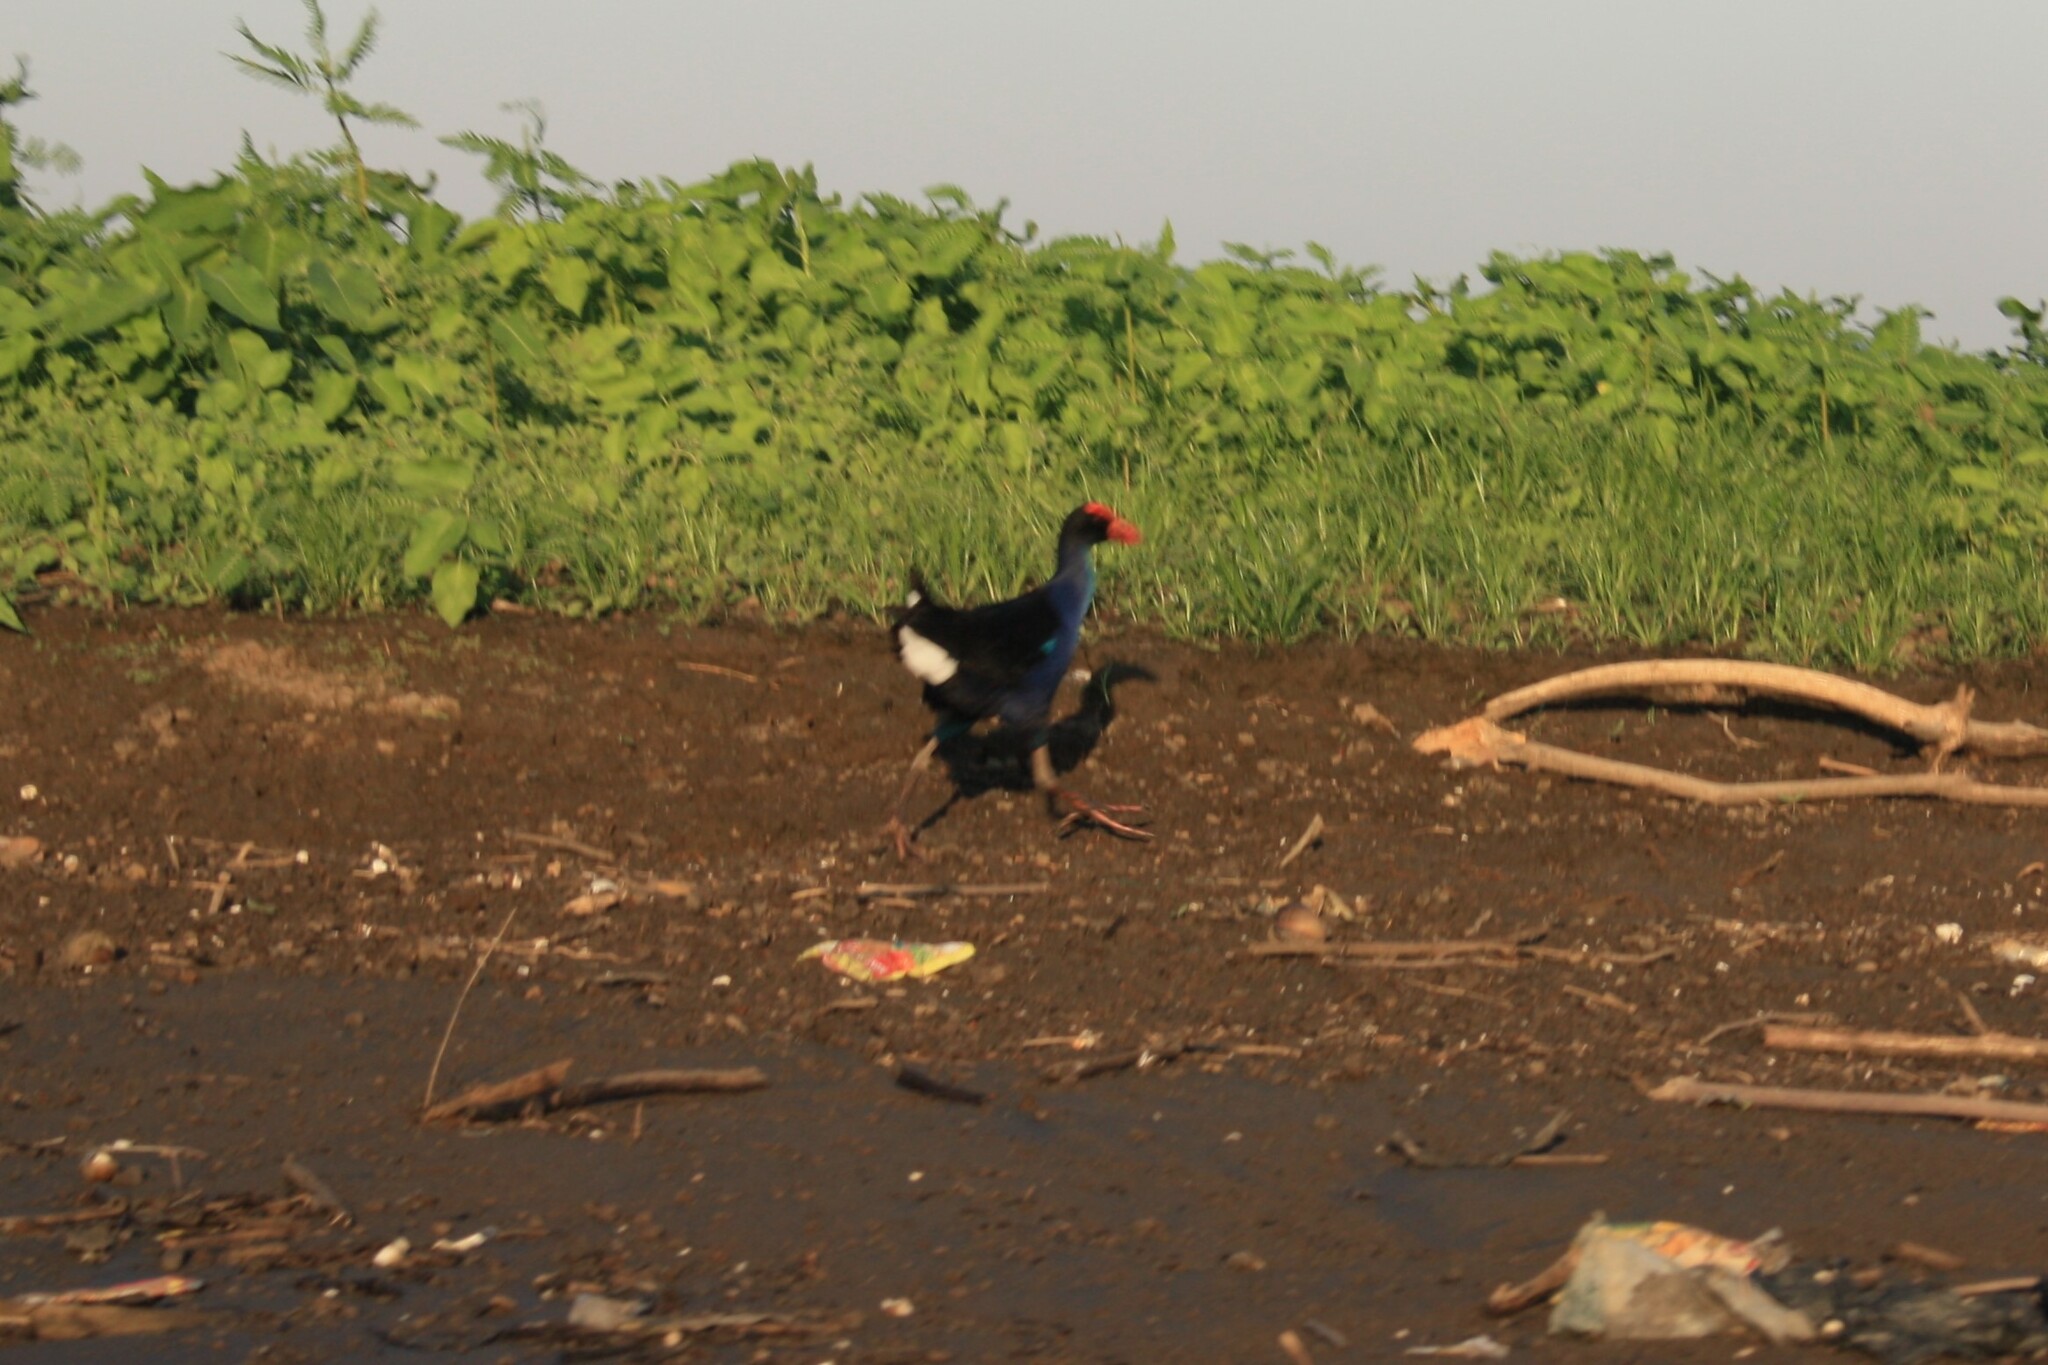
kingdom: Animalia
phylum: Chordata
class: Aves
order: Gruiformes
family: Rallidae
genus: Porphyrio
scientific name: Porphyrio indicus
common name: Black-backed swamphen
